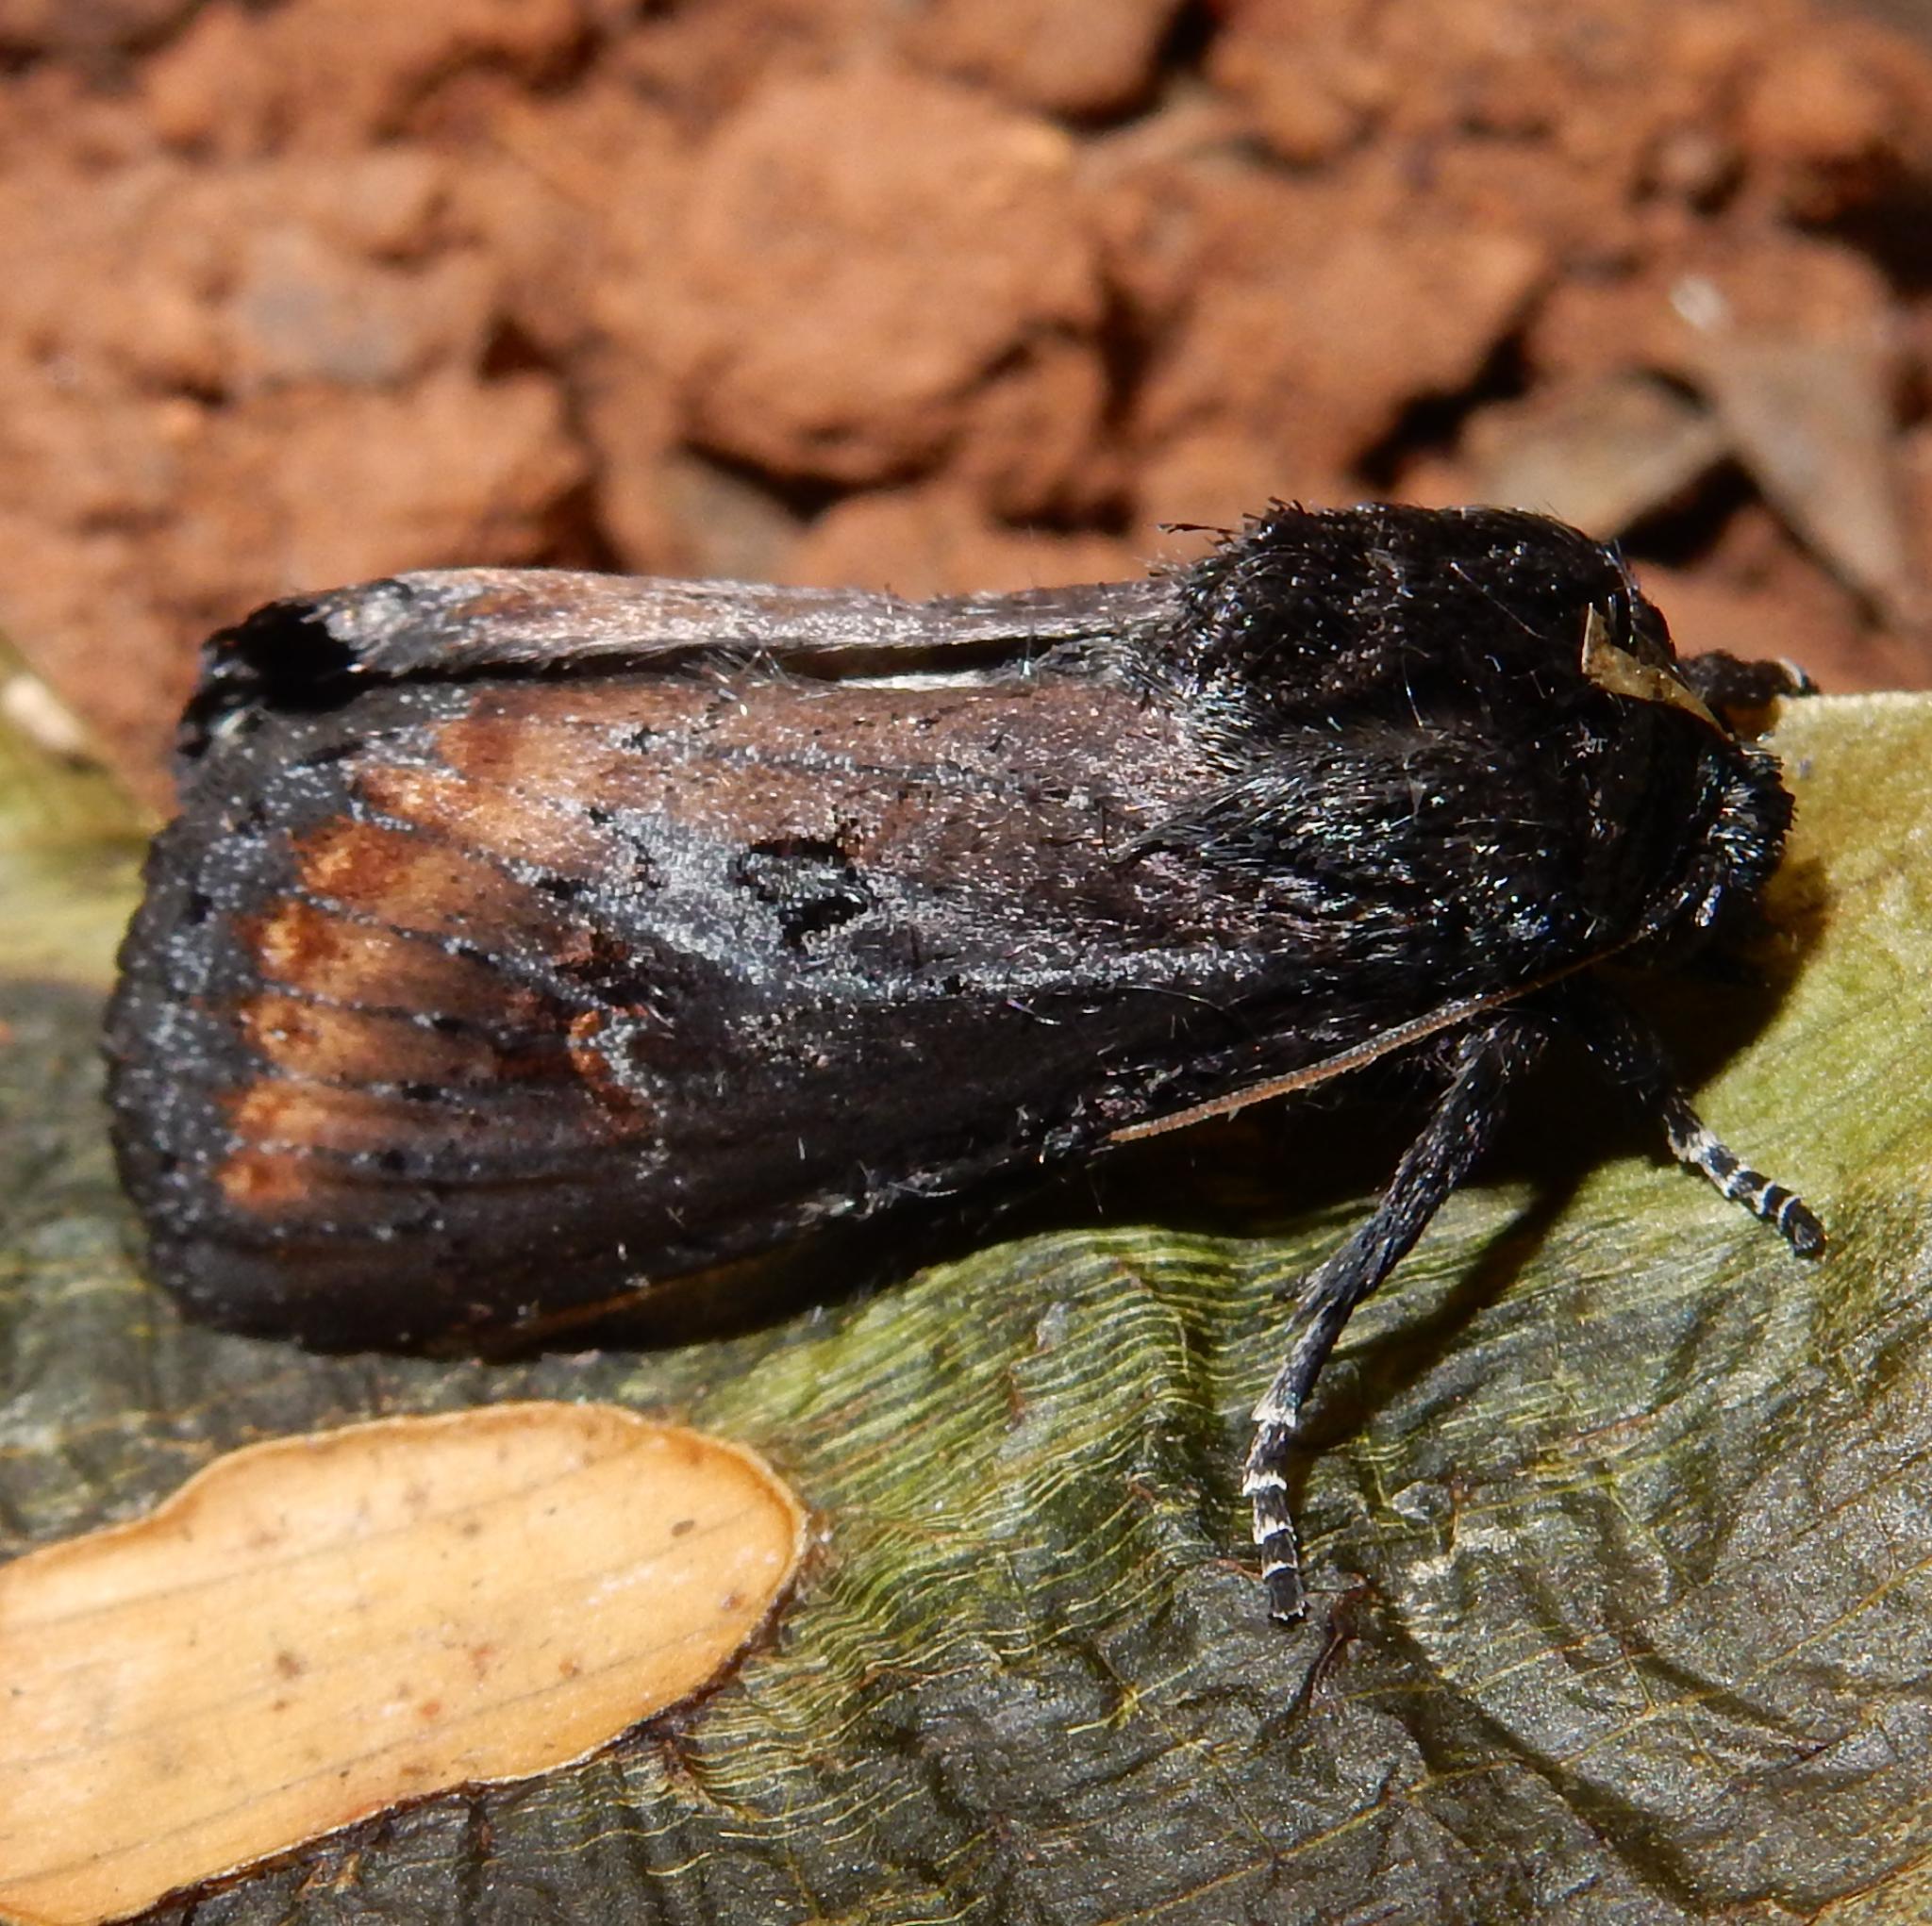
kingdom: Animalia
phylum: Arthropoda
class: Insecta
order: Lepidoptera
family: Noctuidae
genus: Brithys
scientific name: Brithys crini
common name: Kew arches
